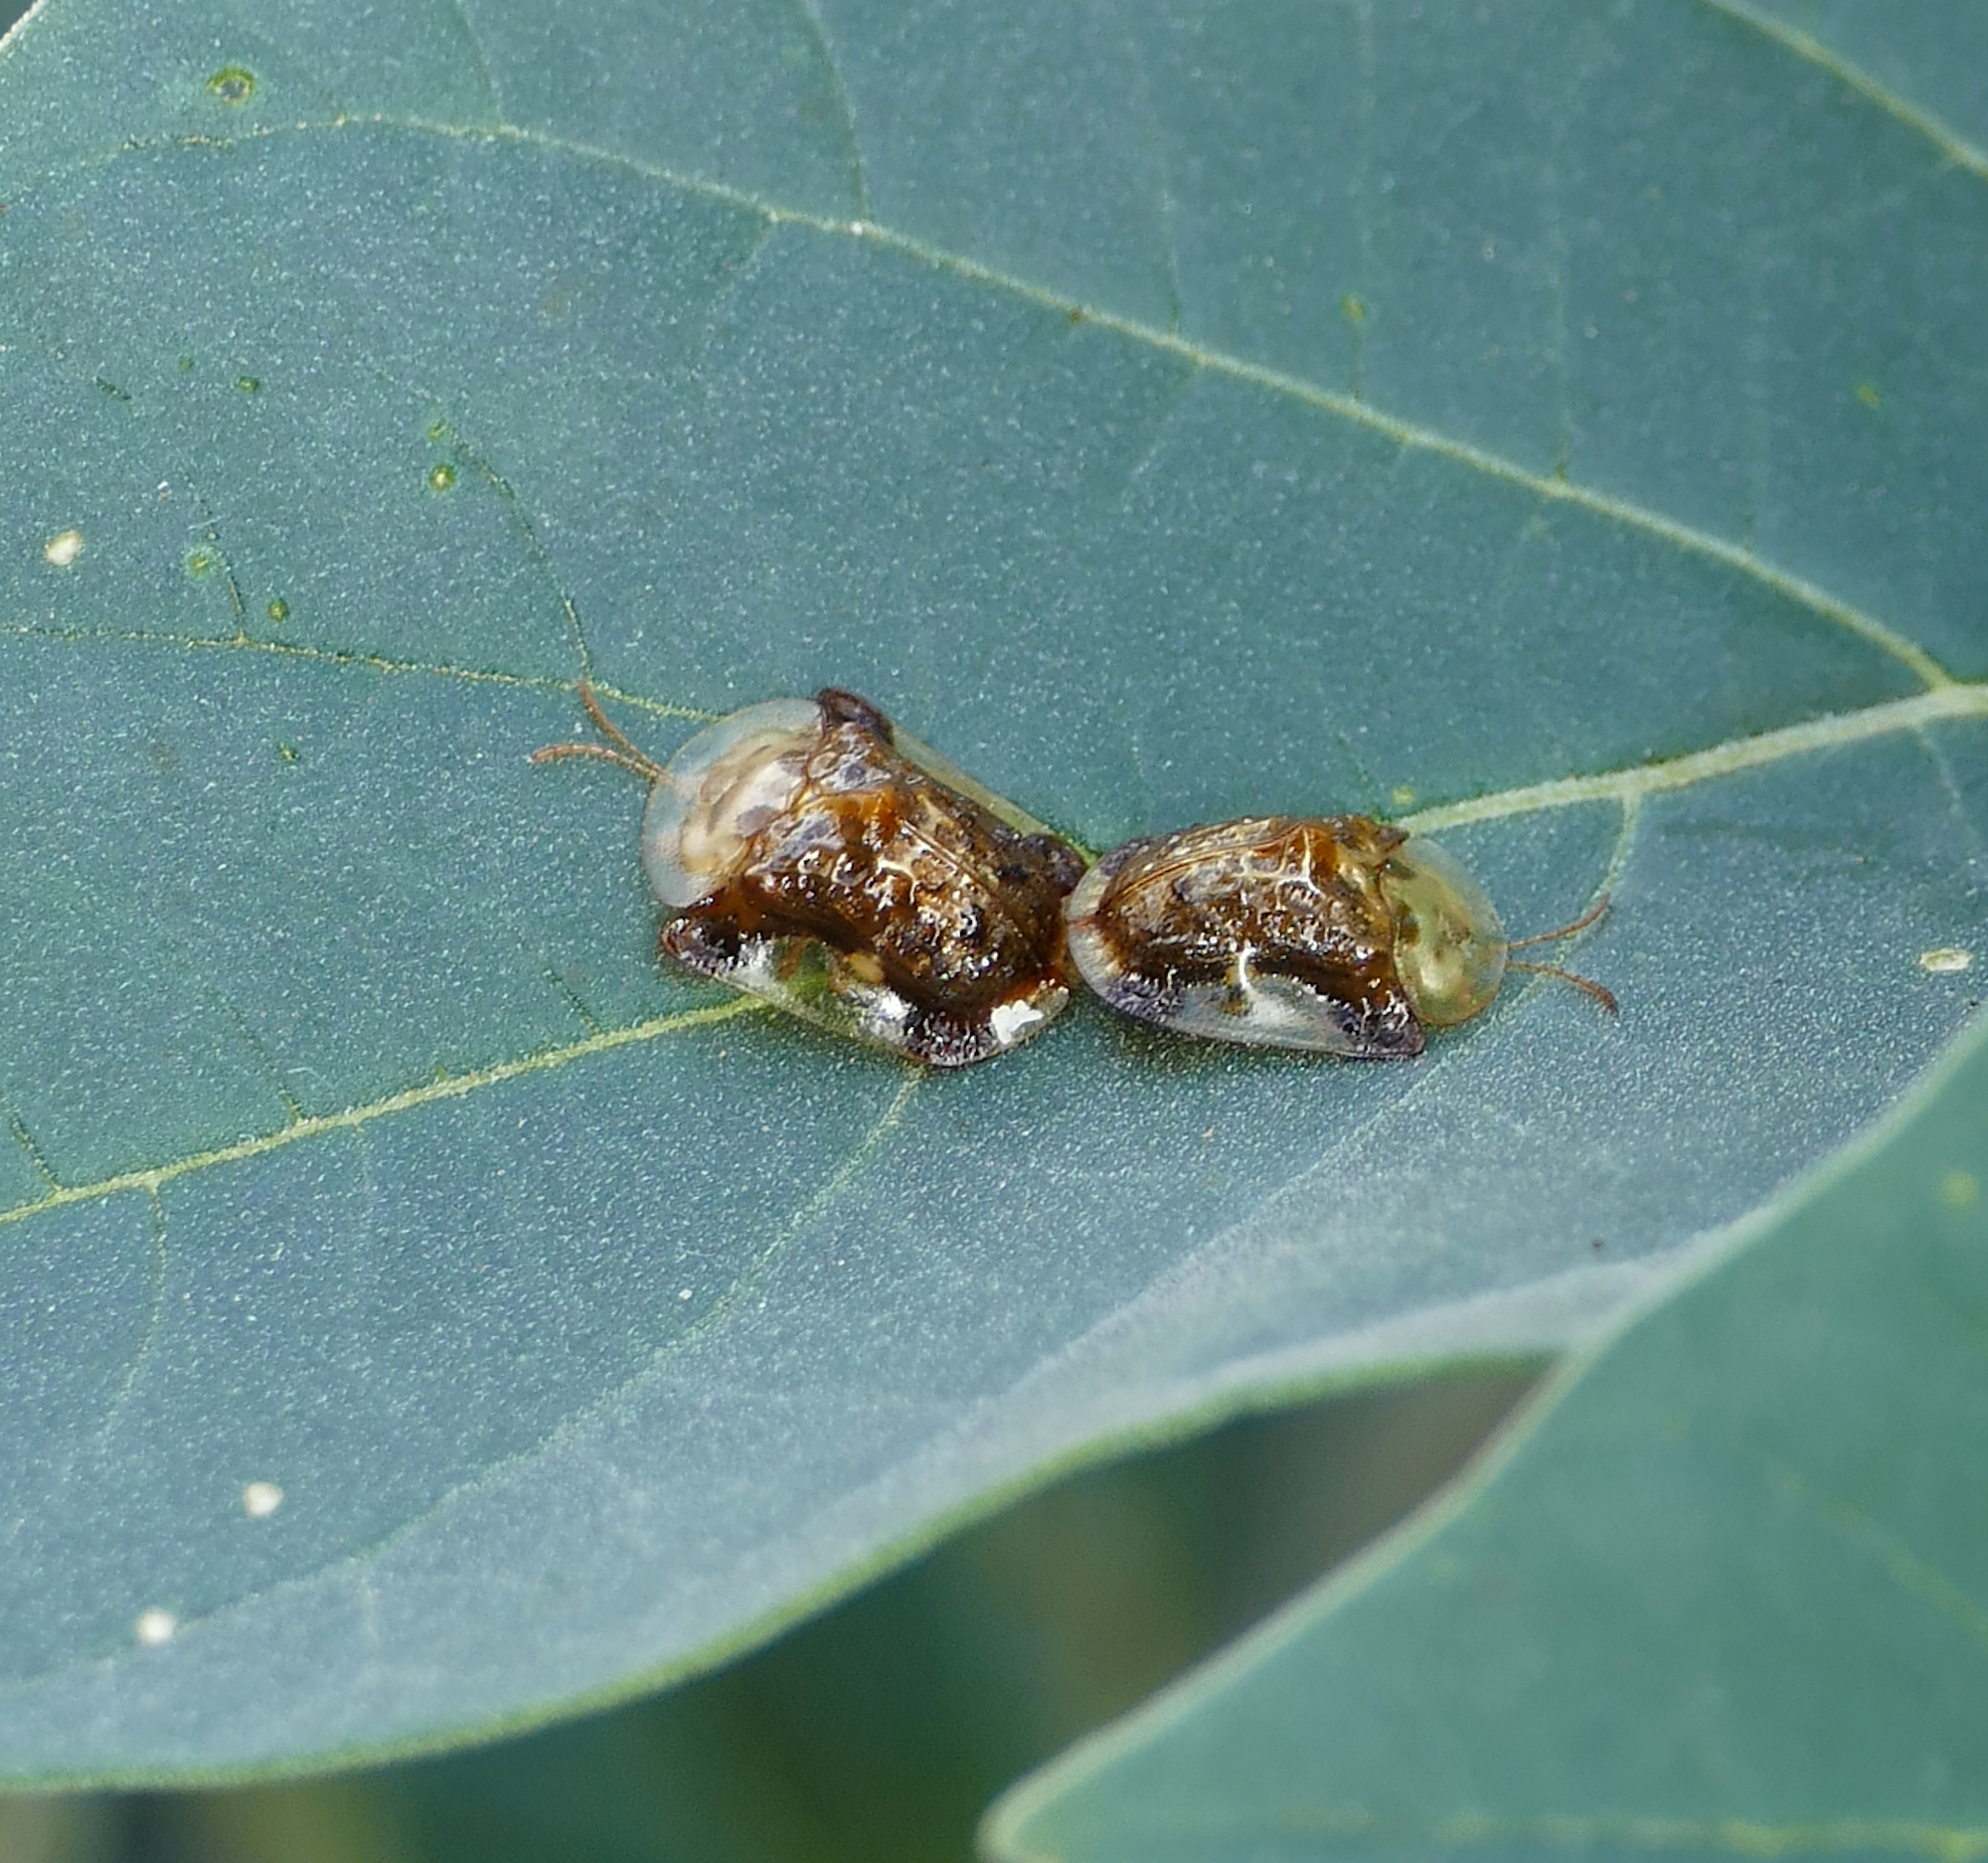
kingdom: Animalia
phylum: Arthropoda
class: Insecta
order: Coleoptera
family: Chrysomelidae
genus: Helocassis
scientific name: Helocassis testudinaria
